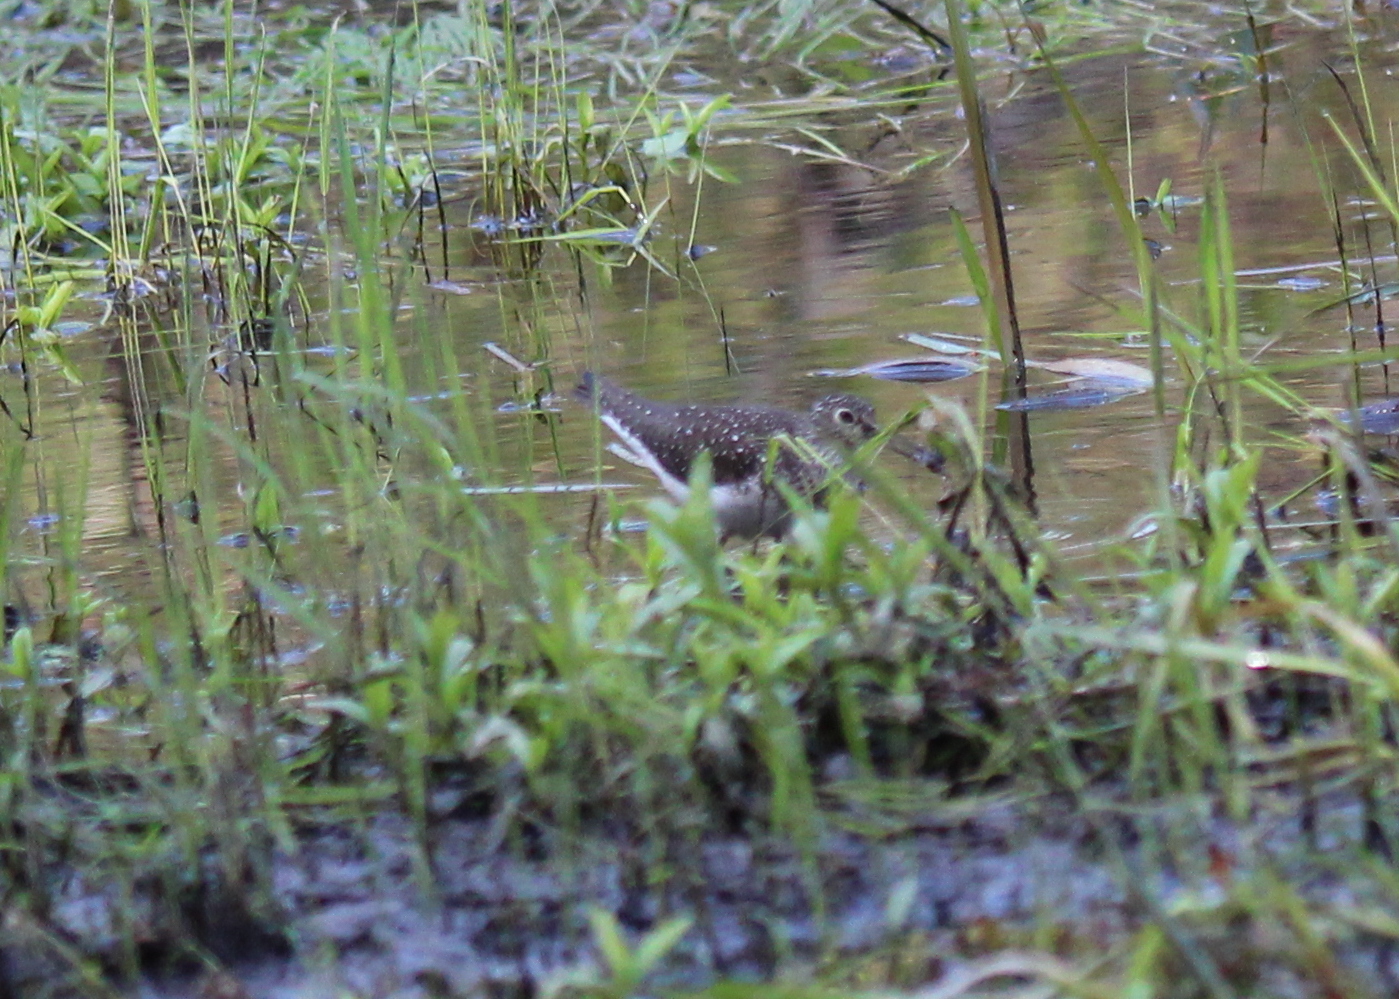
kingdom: Animalia
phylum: Chordata
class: Aves
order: Charadriiformes
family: Scolopacidae
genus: Tringa
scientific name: Tringa solitaria
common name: Solitary sandpiper
